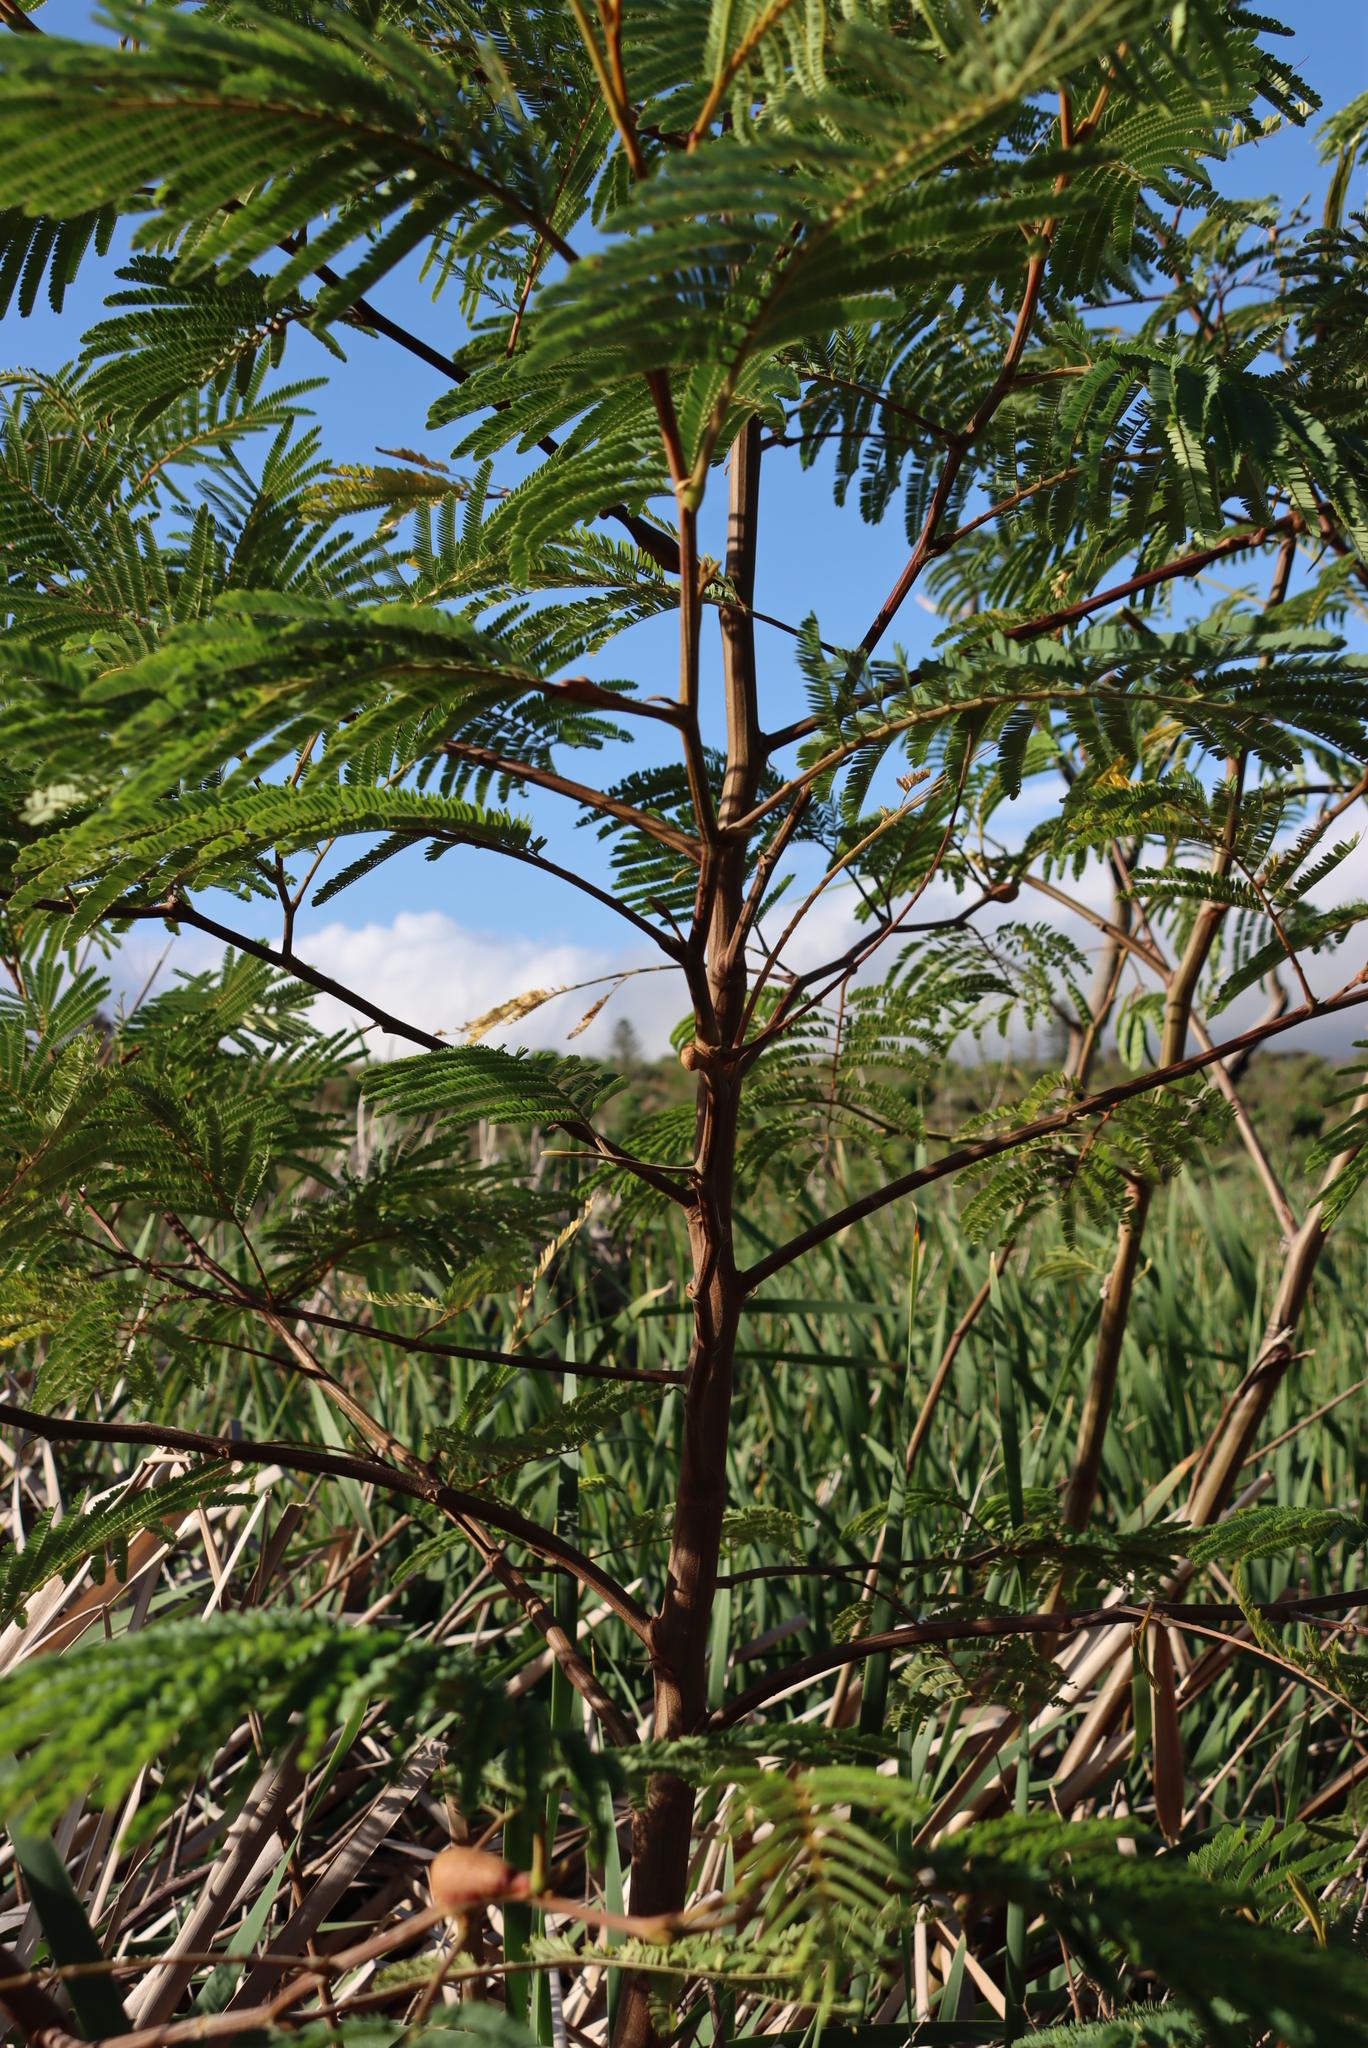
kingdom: Fungi
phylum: Basidiomycota
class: Pucciniomycetes
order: Pucciniales
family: Uromycladiaceae
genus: Uromycladium
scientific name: Uromycladium woodii
